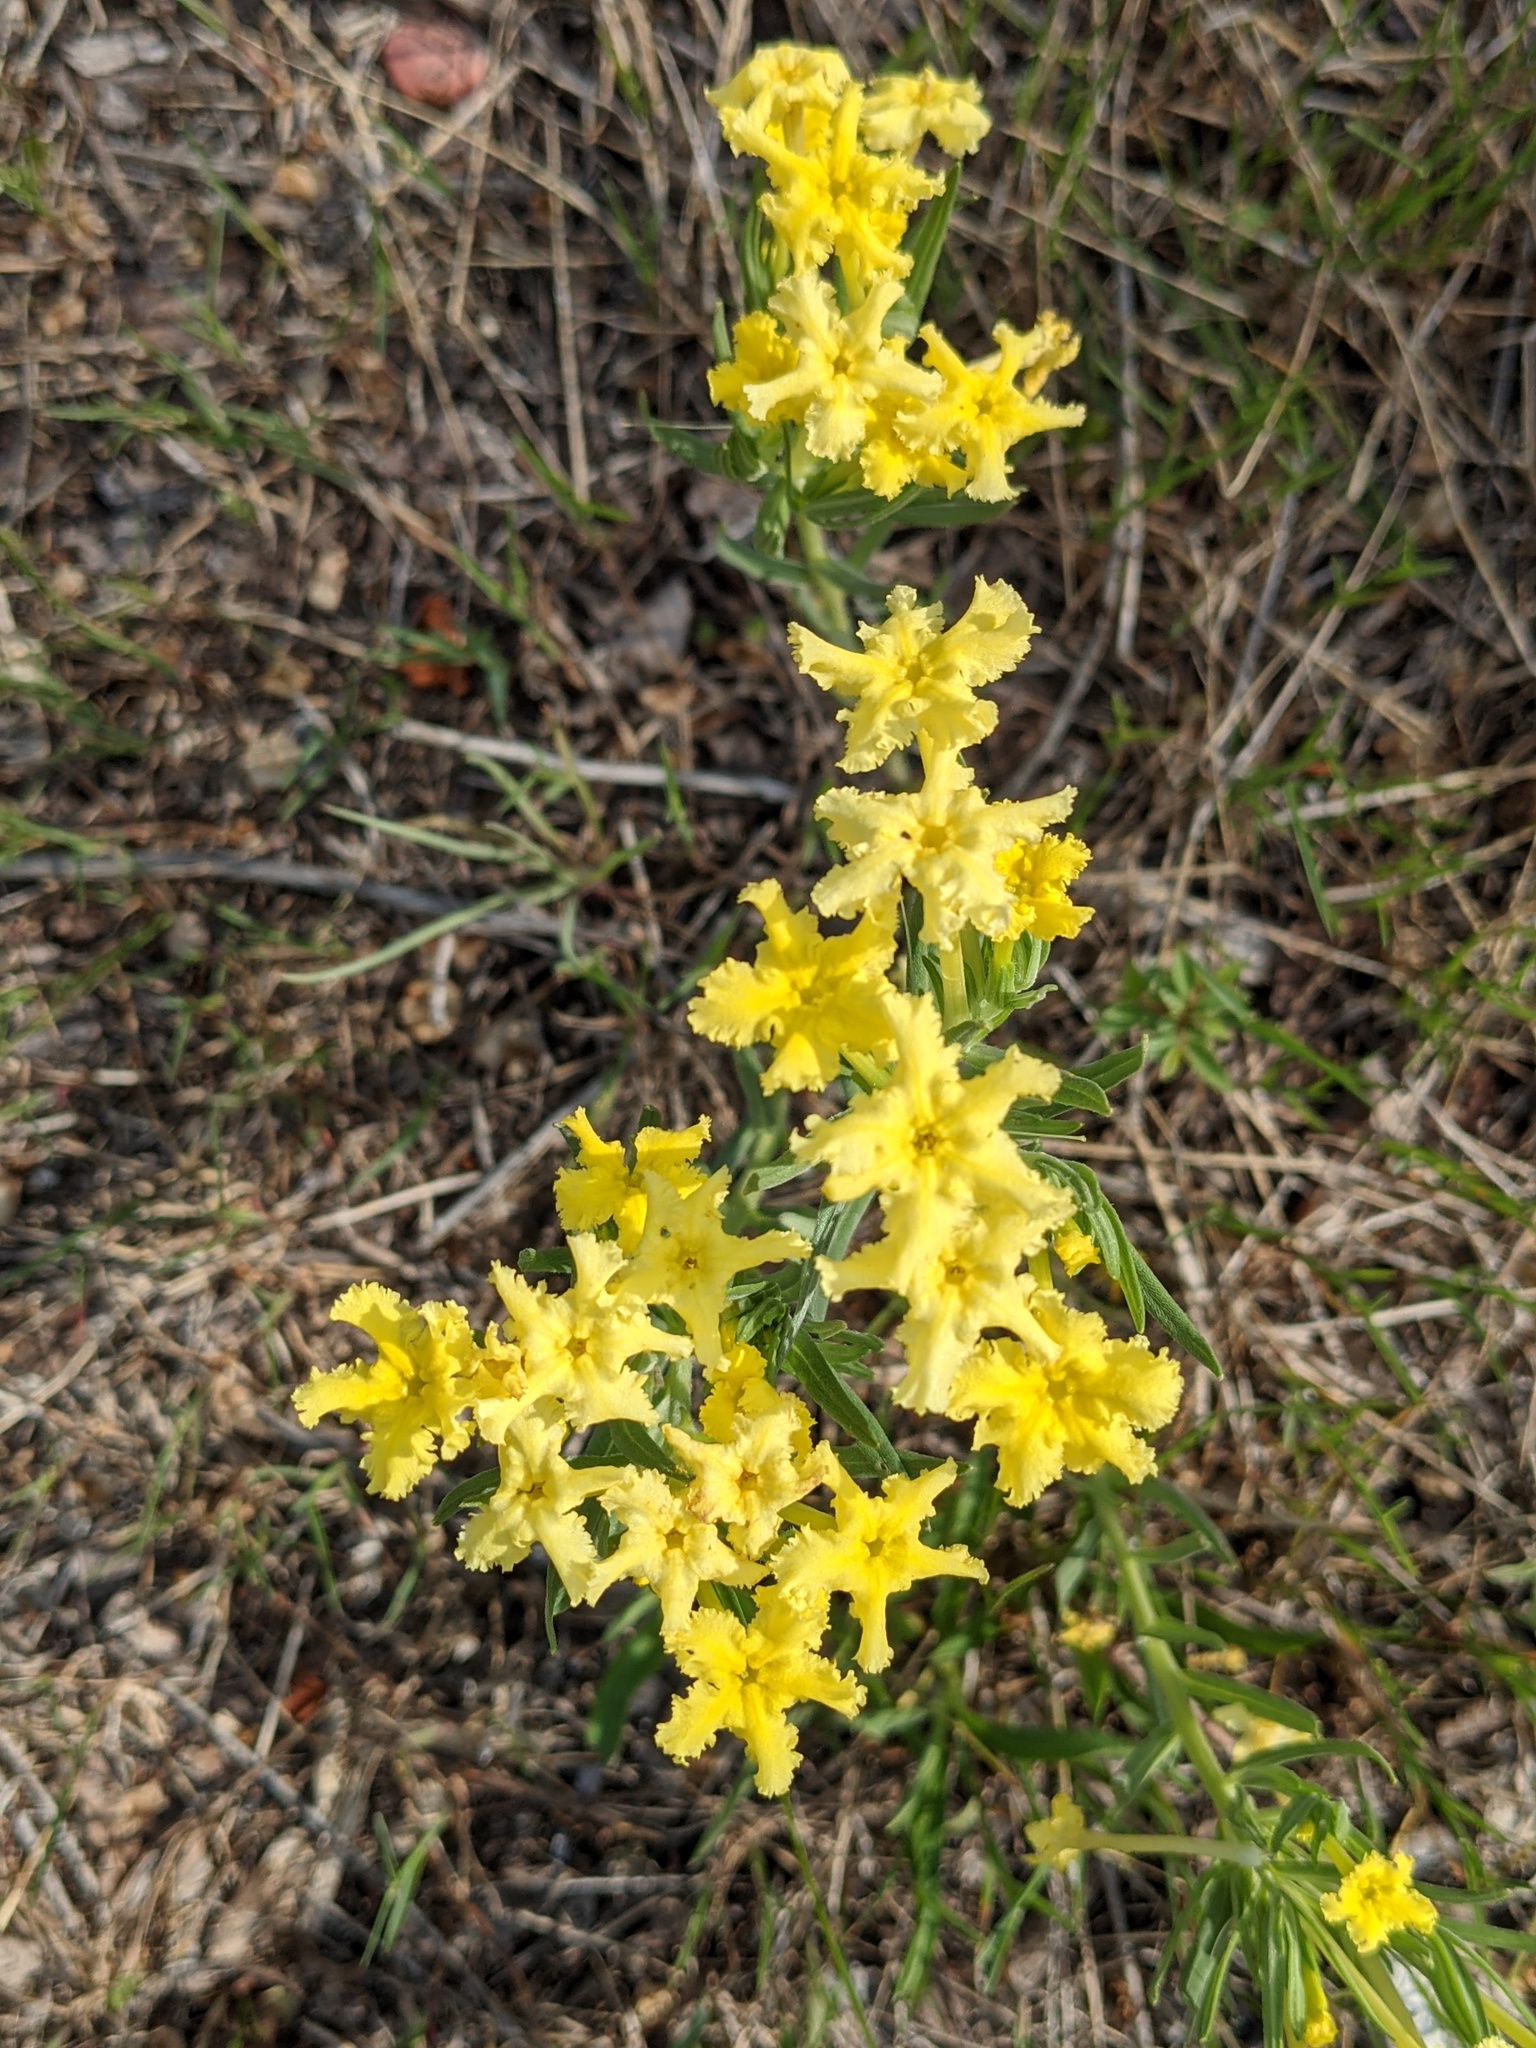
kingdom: Plantae
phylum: Tracheophyta
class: Magnoliopsida
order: Boraginales
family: Boraginaceae
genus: Lithospermum
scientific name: Lithospermum incisum
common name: Fringed gromwell
